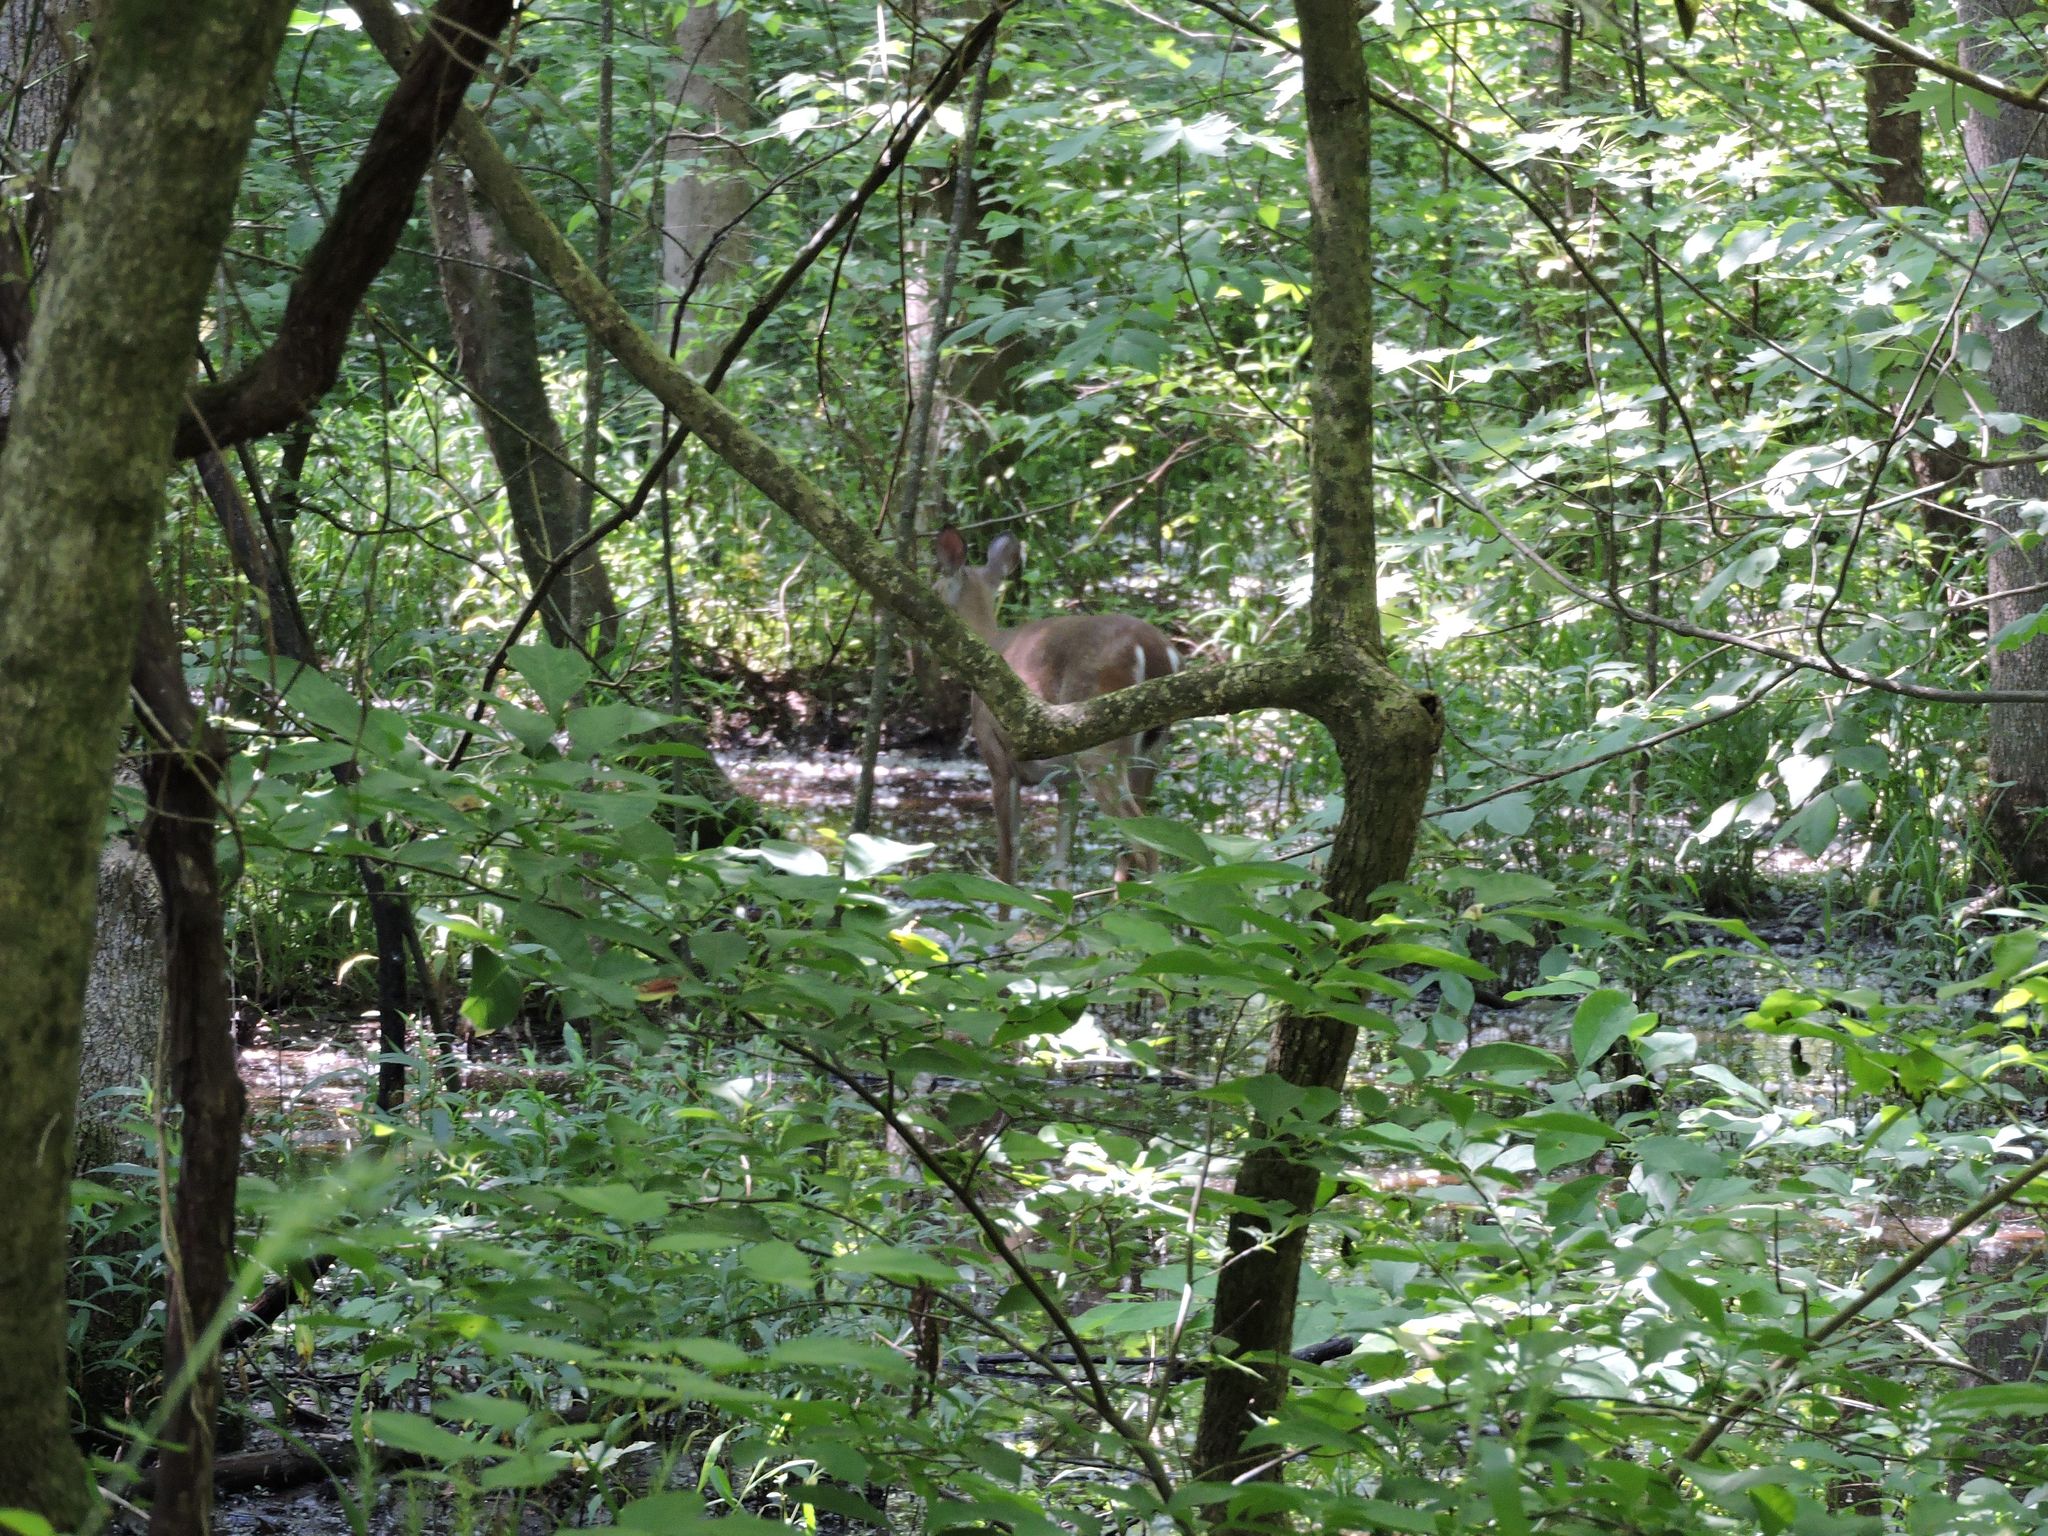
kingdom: Animalia
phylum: Chordata
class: Mammalia
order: Artiodactyla
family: Cervidae
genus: Odocoileus
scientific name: Odocoileus virginianus
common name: White-tailed deer
